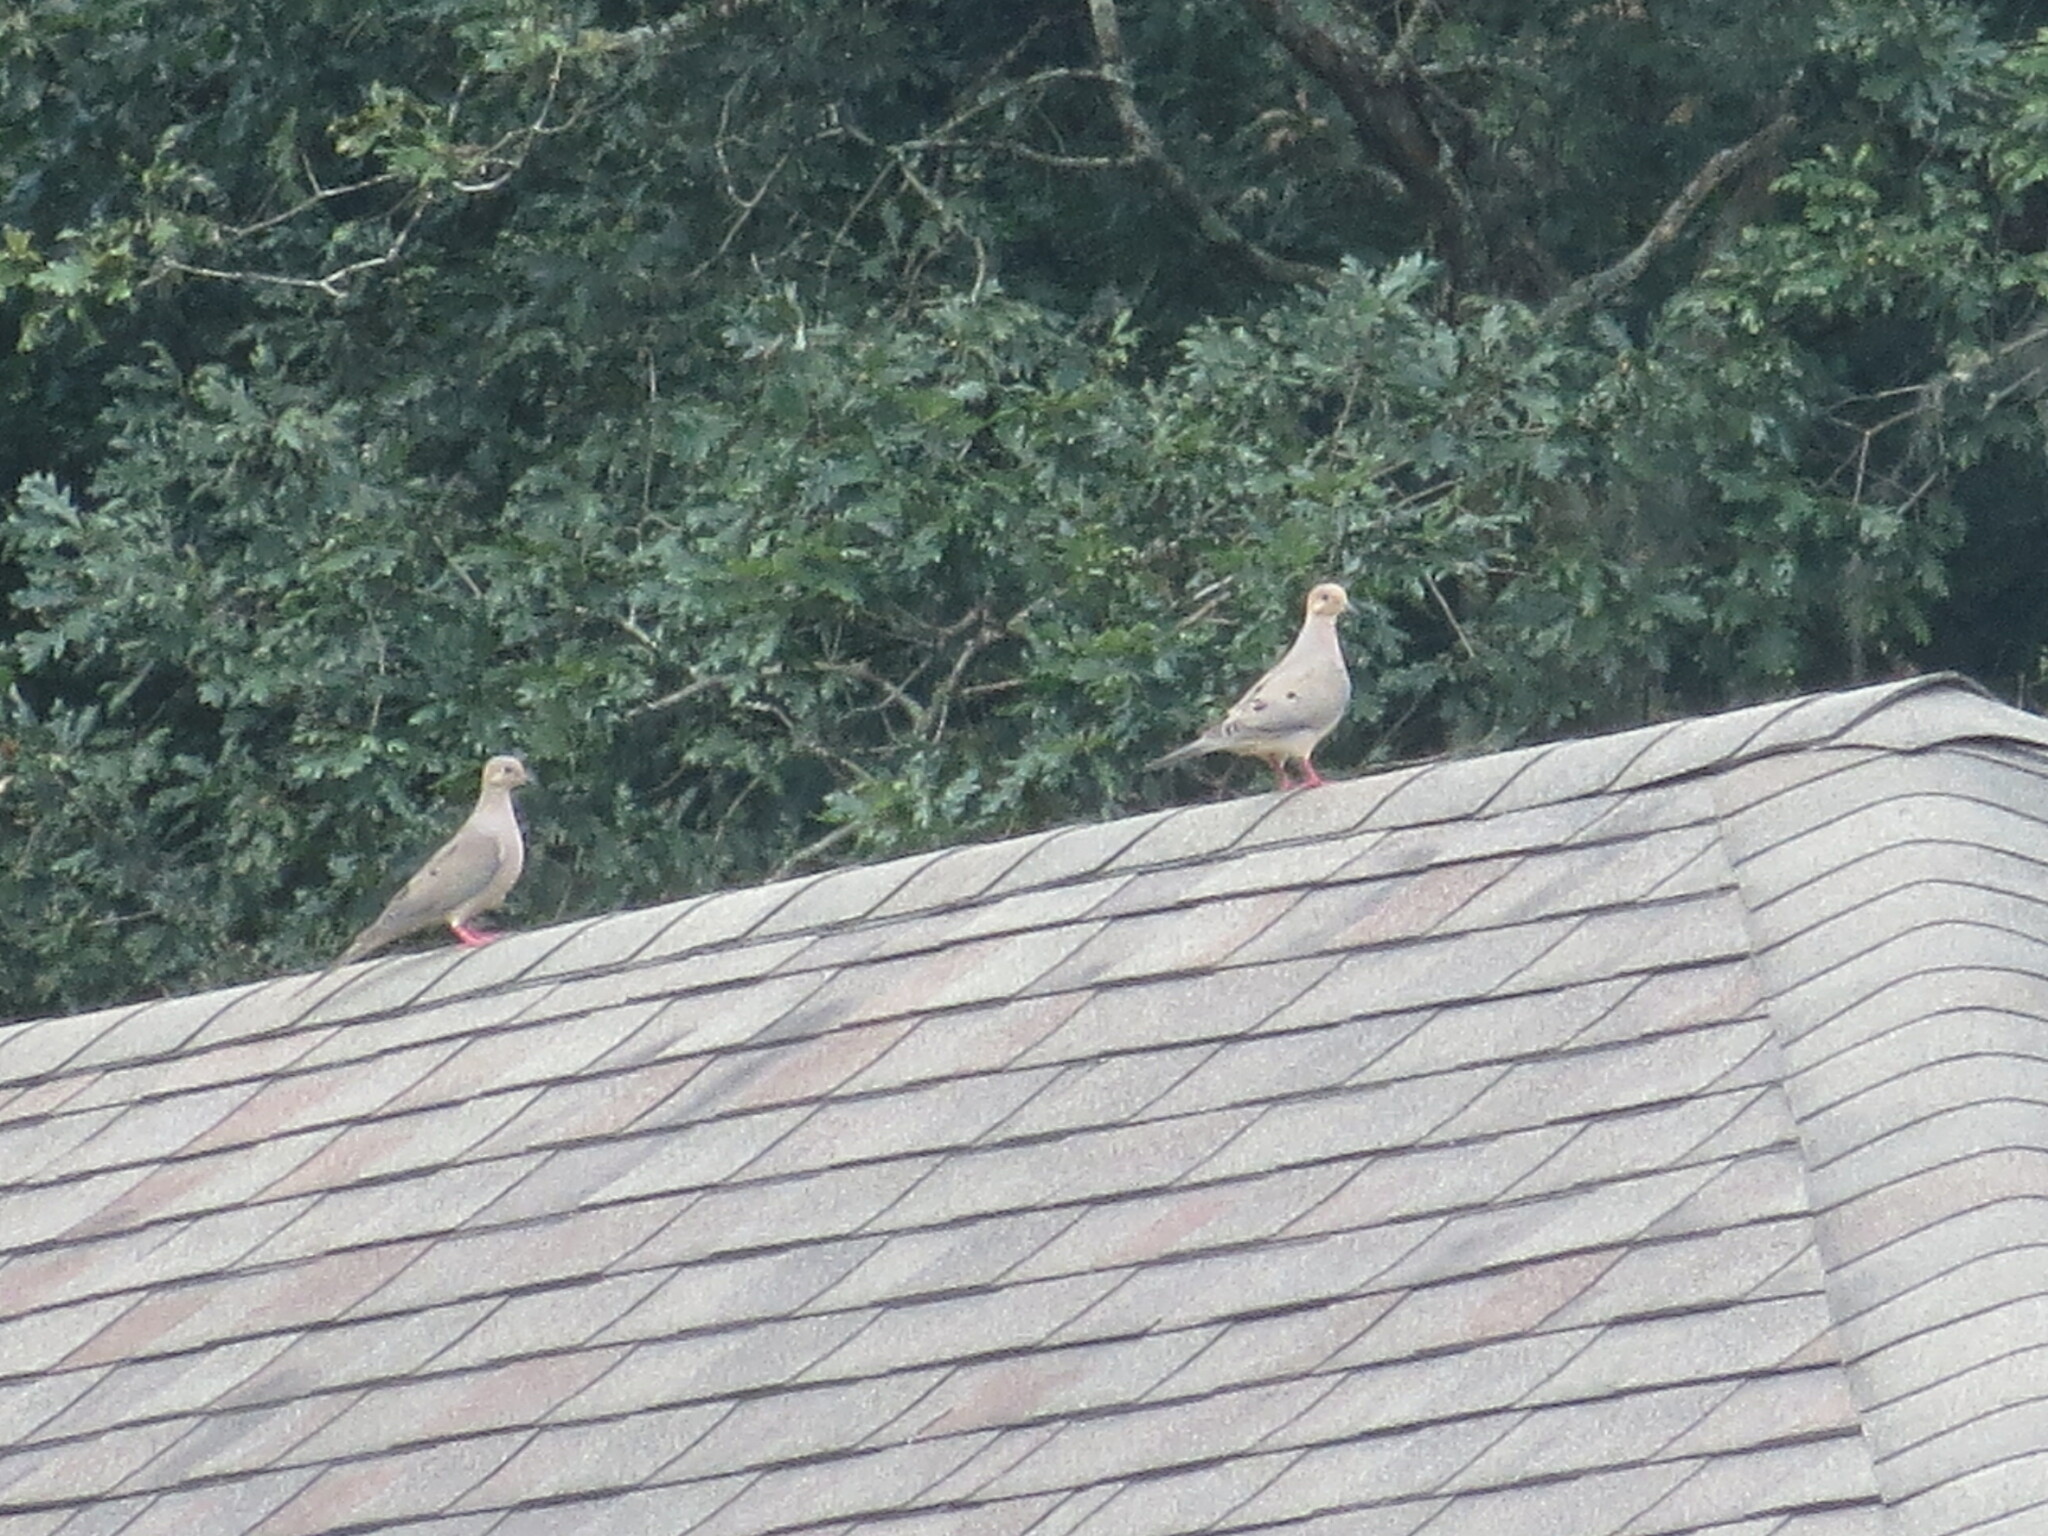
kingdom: Animalia
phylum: Chordata
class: Aves
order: Columbiformes
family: Columbidae
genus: Zenaida
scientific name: Zenaida macroura
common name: Mourning dove
